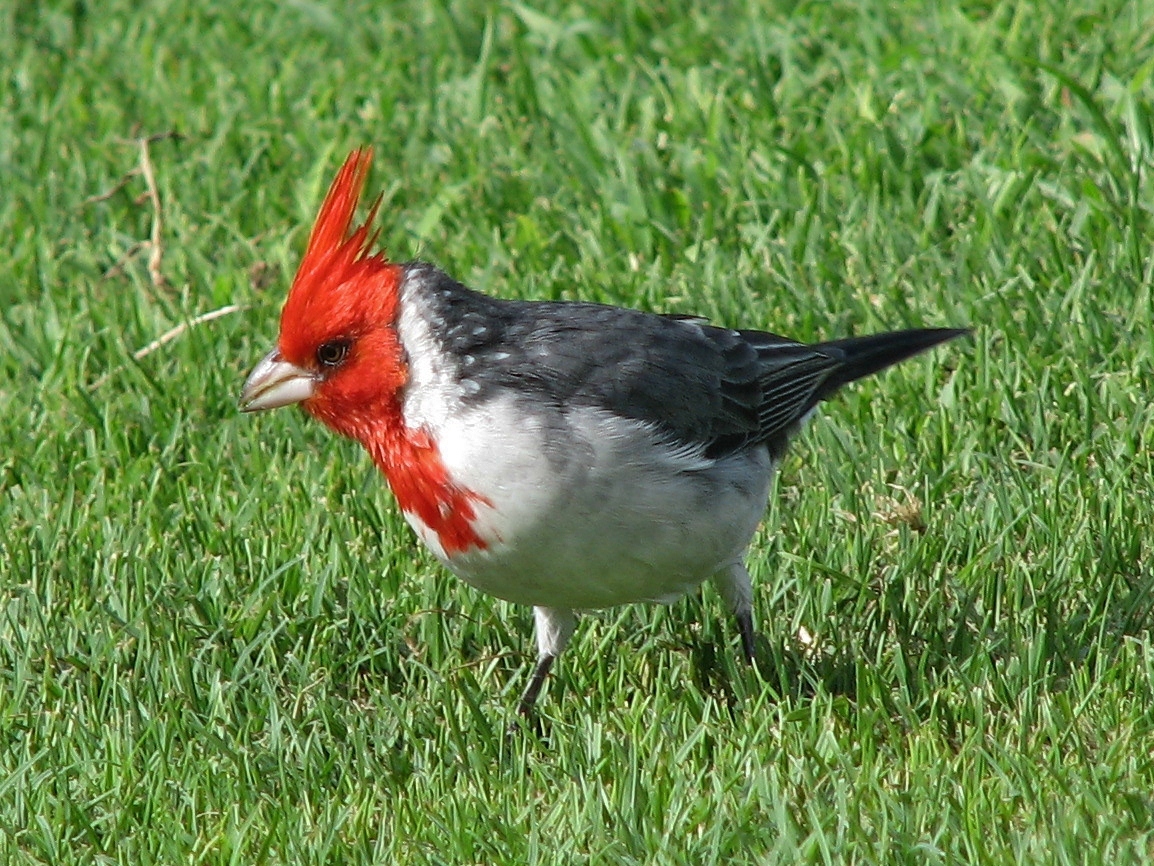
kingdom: Animalia
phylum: Chordata
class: Aves
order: Passeriformes
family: Thraupidae
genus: Paroaria
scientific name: Paroaria coronata
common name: Red-crested cardinal
